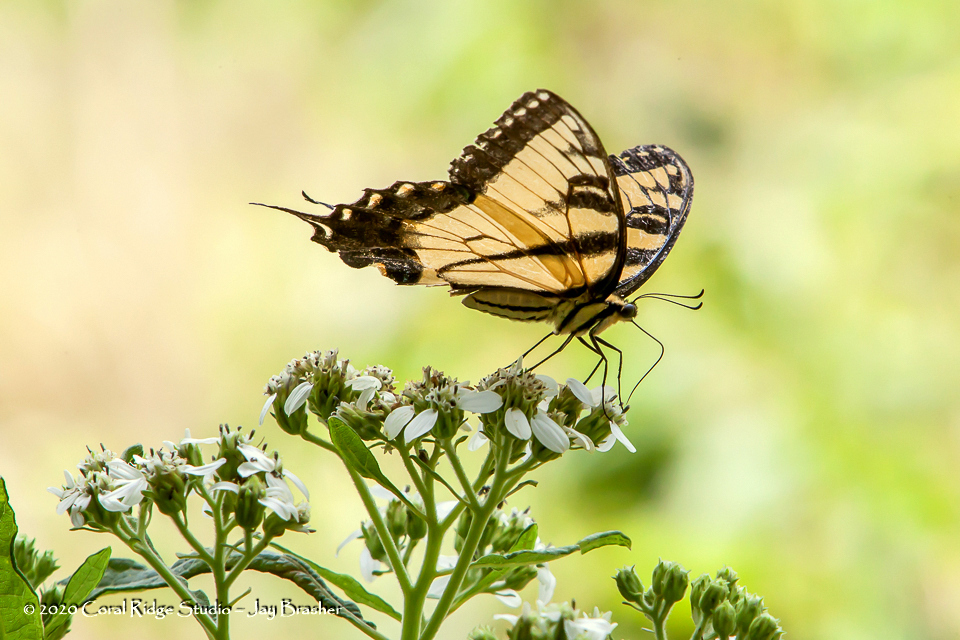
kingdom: Animalia
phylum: Arthropoda
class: Insecta
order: Lepidoptera
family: Papilionidae
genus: Papilio
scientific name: Papilio glaucus
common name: Tiger swallowtail
